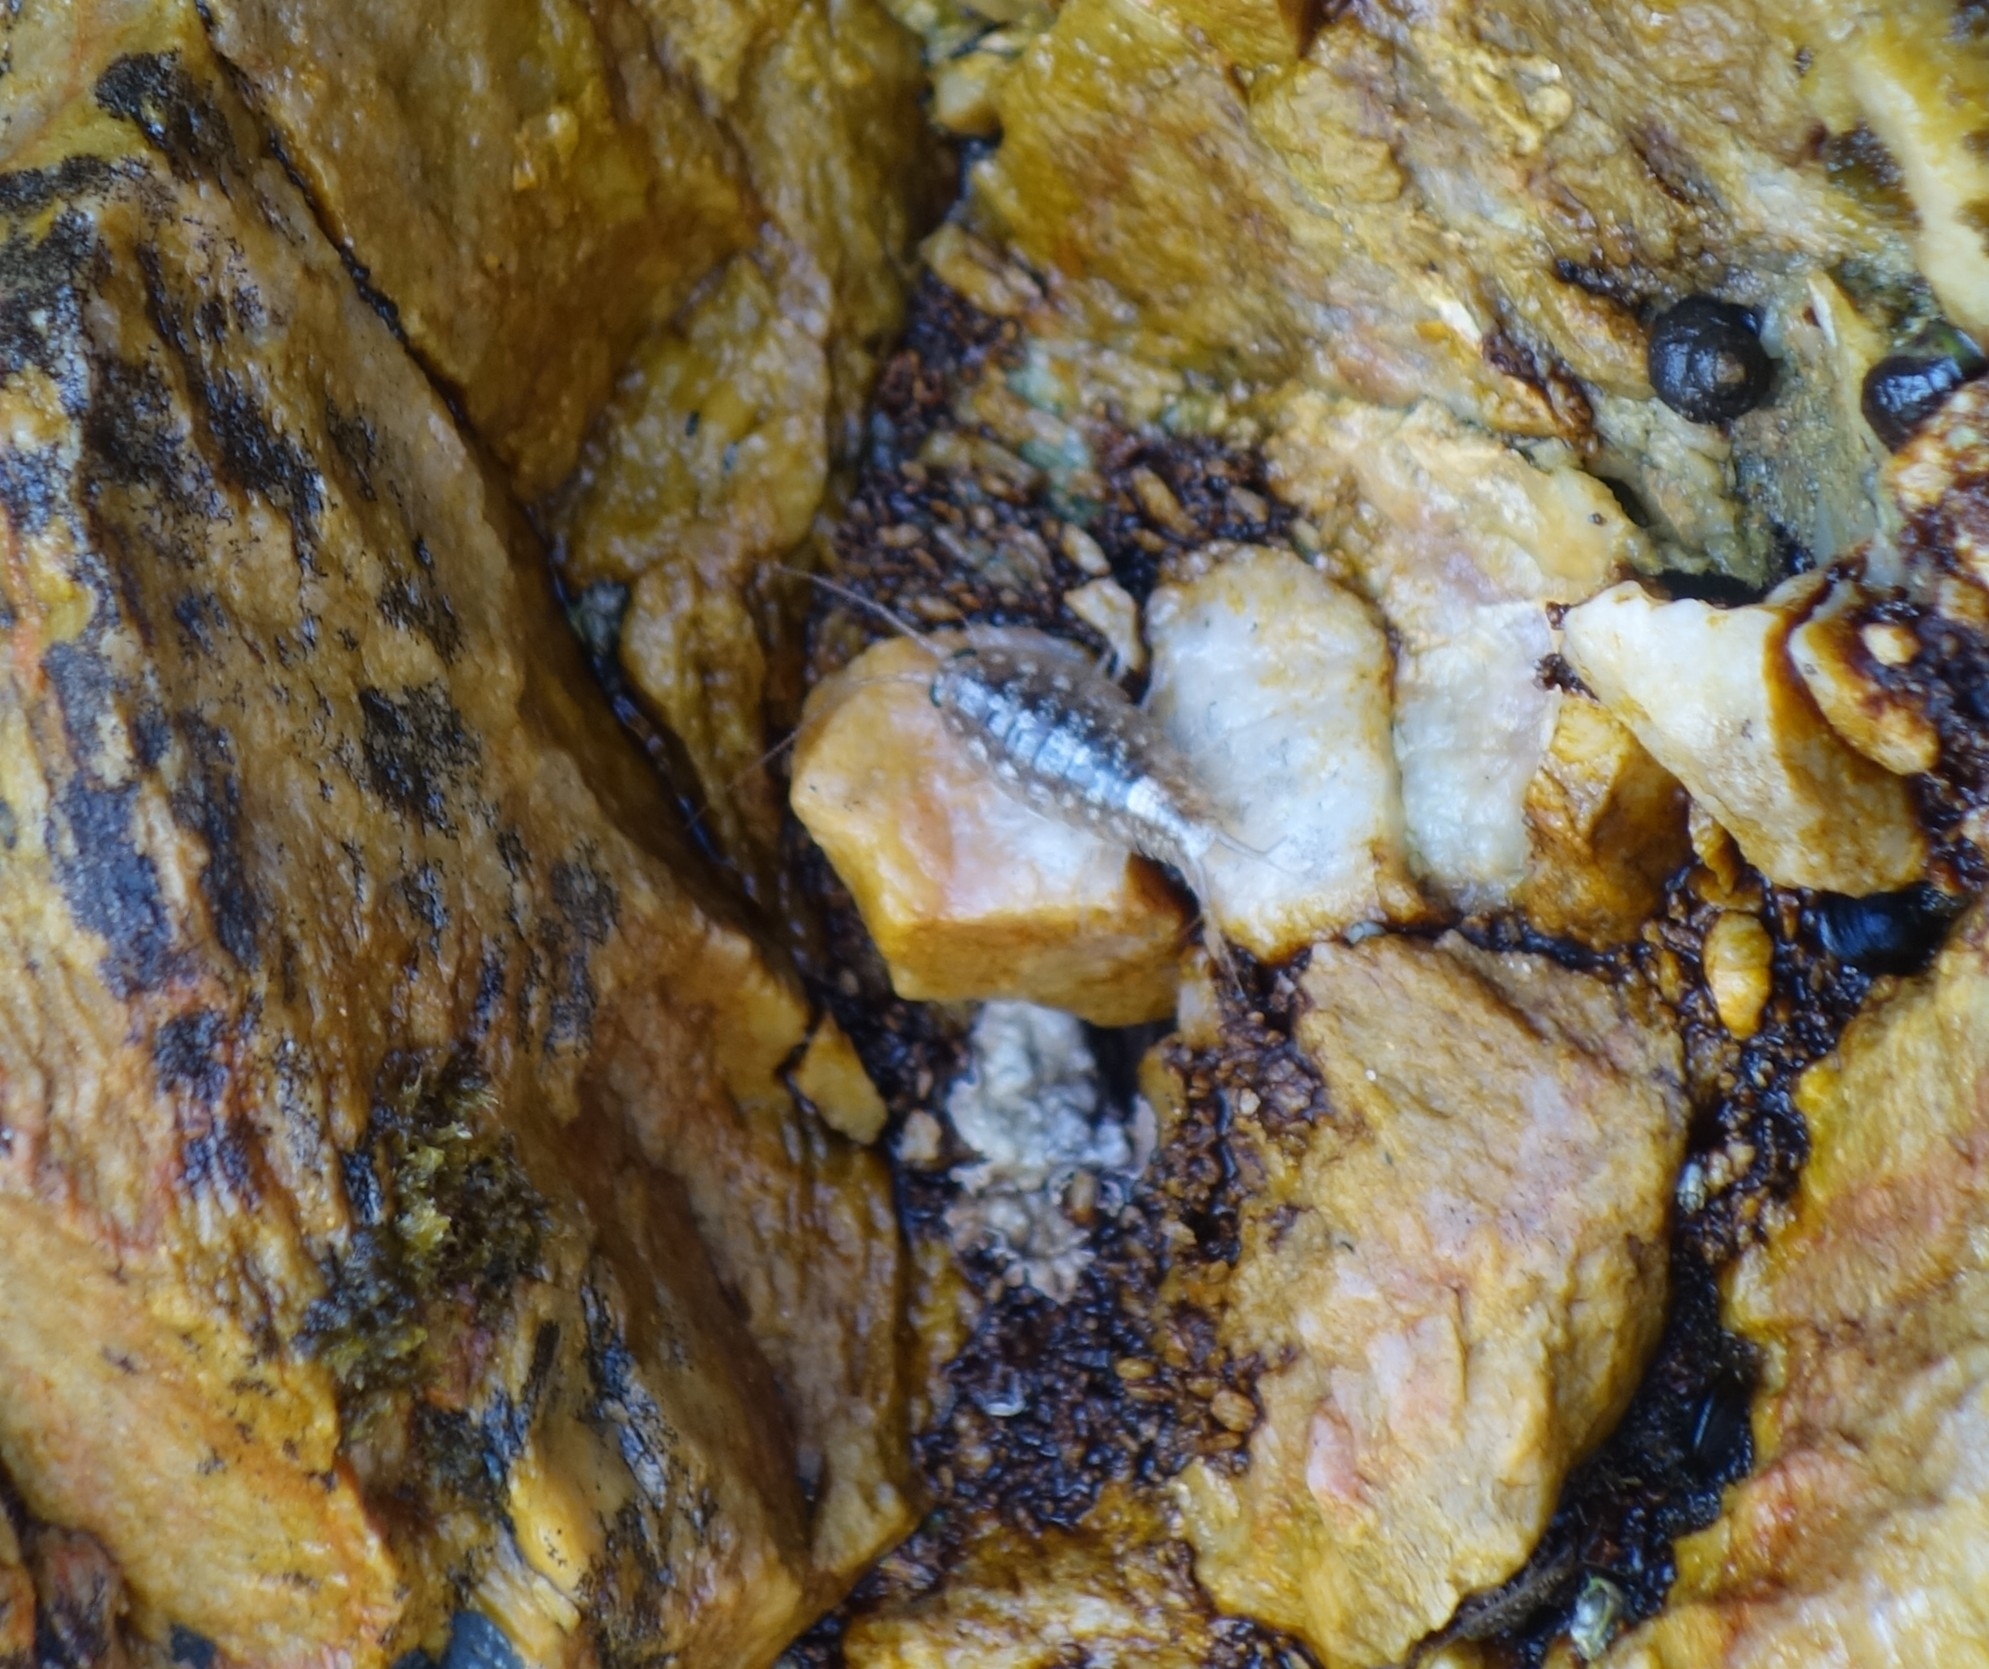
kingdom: Animalia
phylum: Arthropoda
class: Malacostraca
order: Isopoda
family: Ligiidae
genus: Ligia
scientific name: Ligia dilatata
